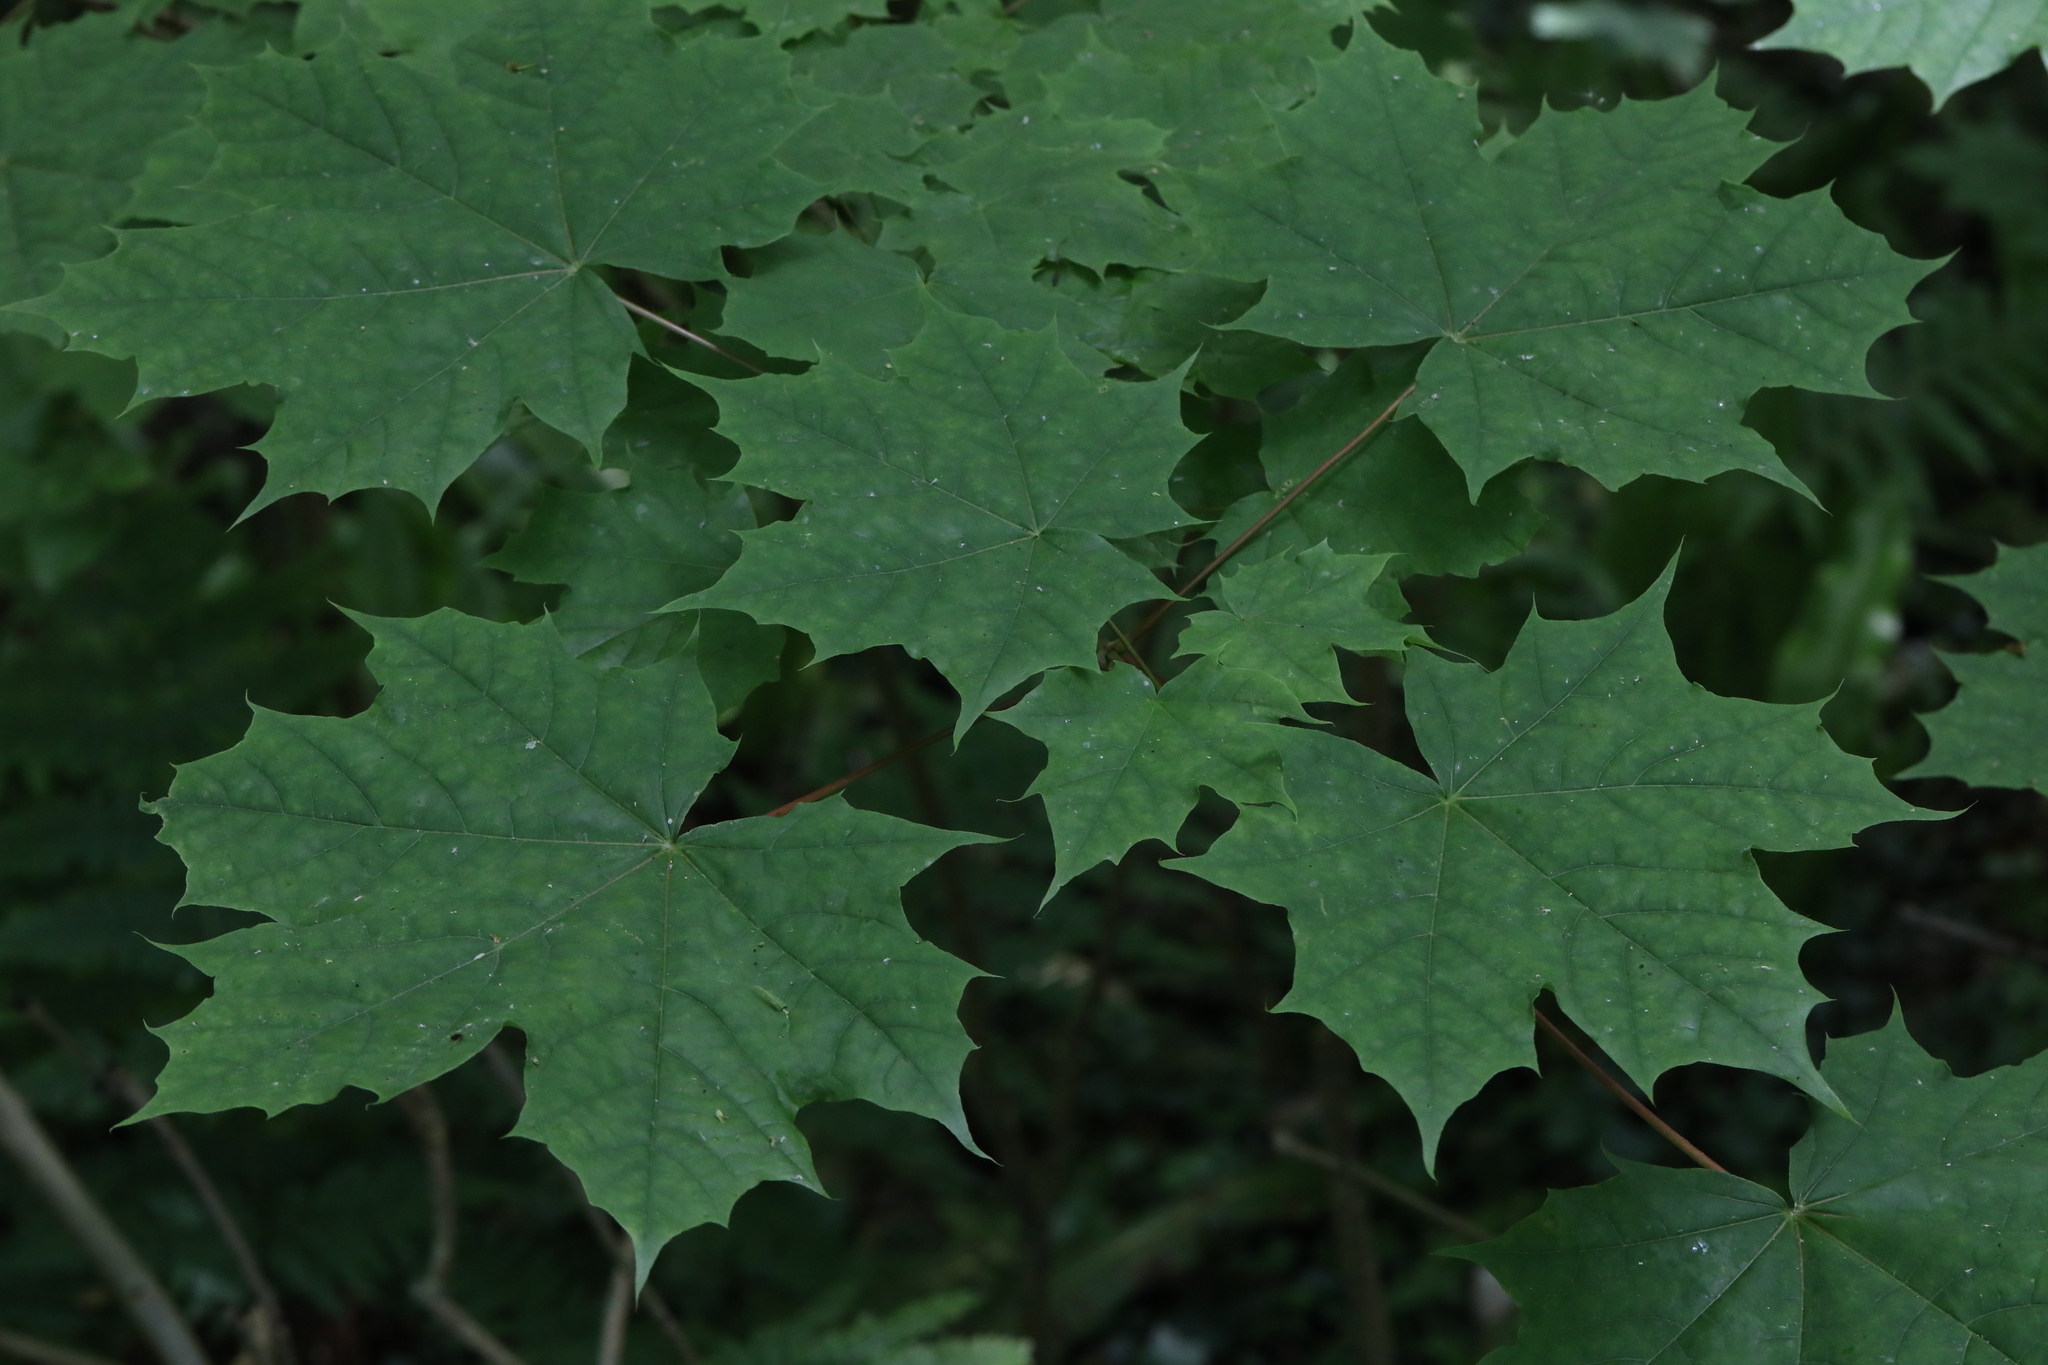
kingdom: Plantae
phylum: Tracheophyta
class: Magnoliopsida
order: Sapindales
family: Sapindaceae
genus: Acer
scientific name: Acer platanoides
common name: Norway maple
